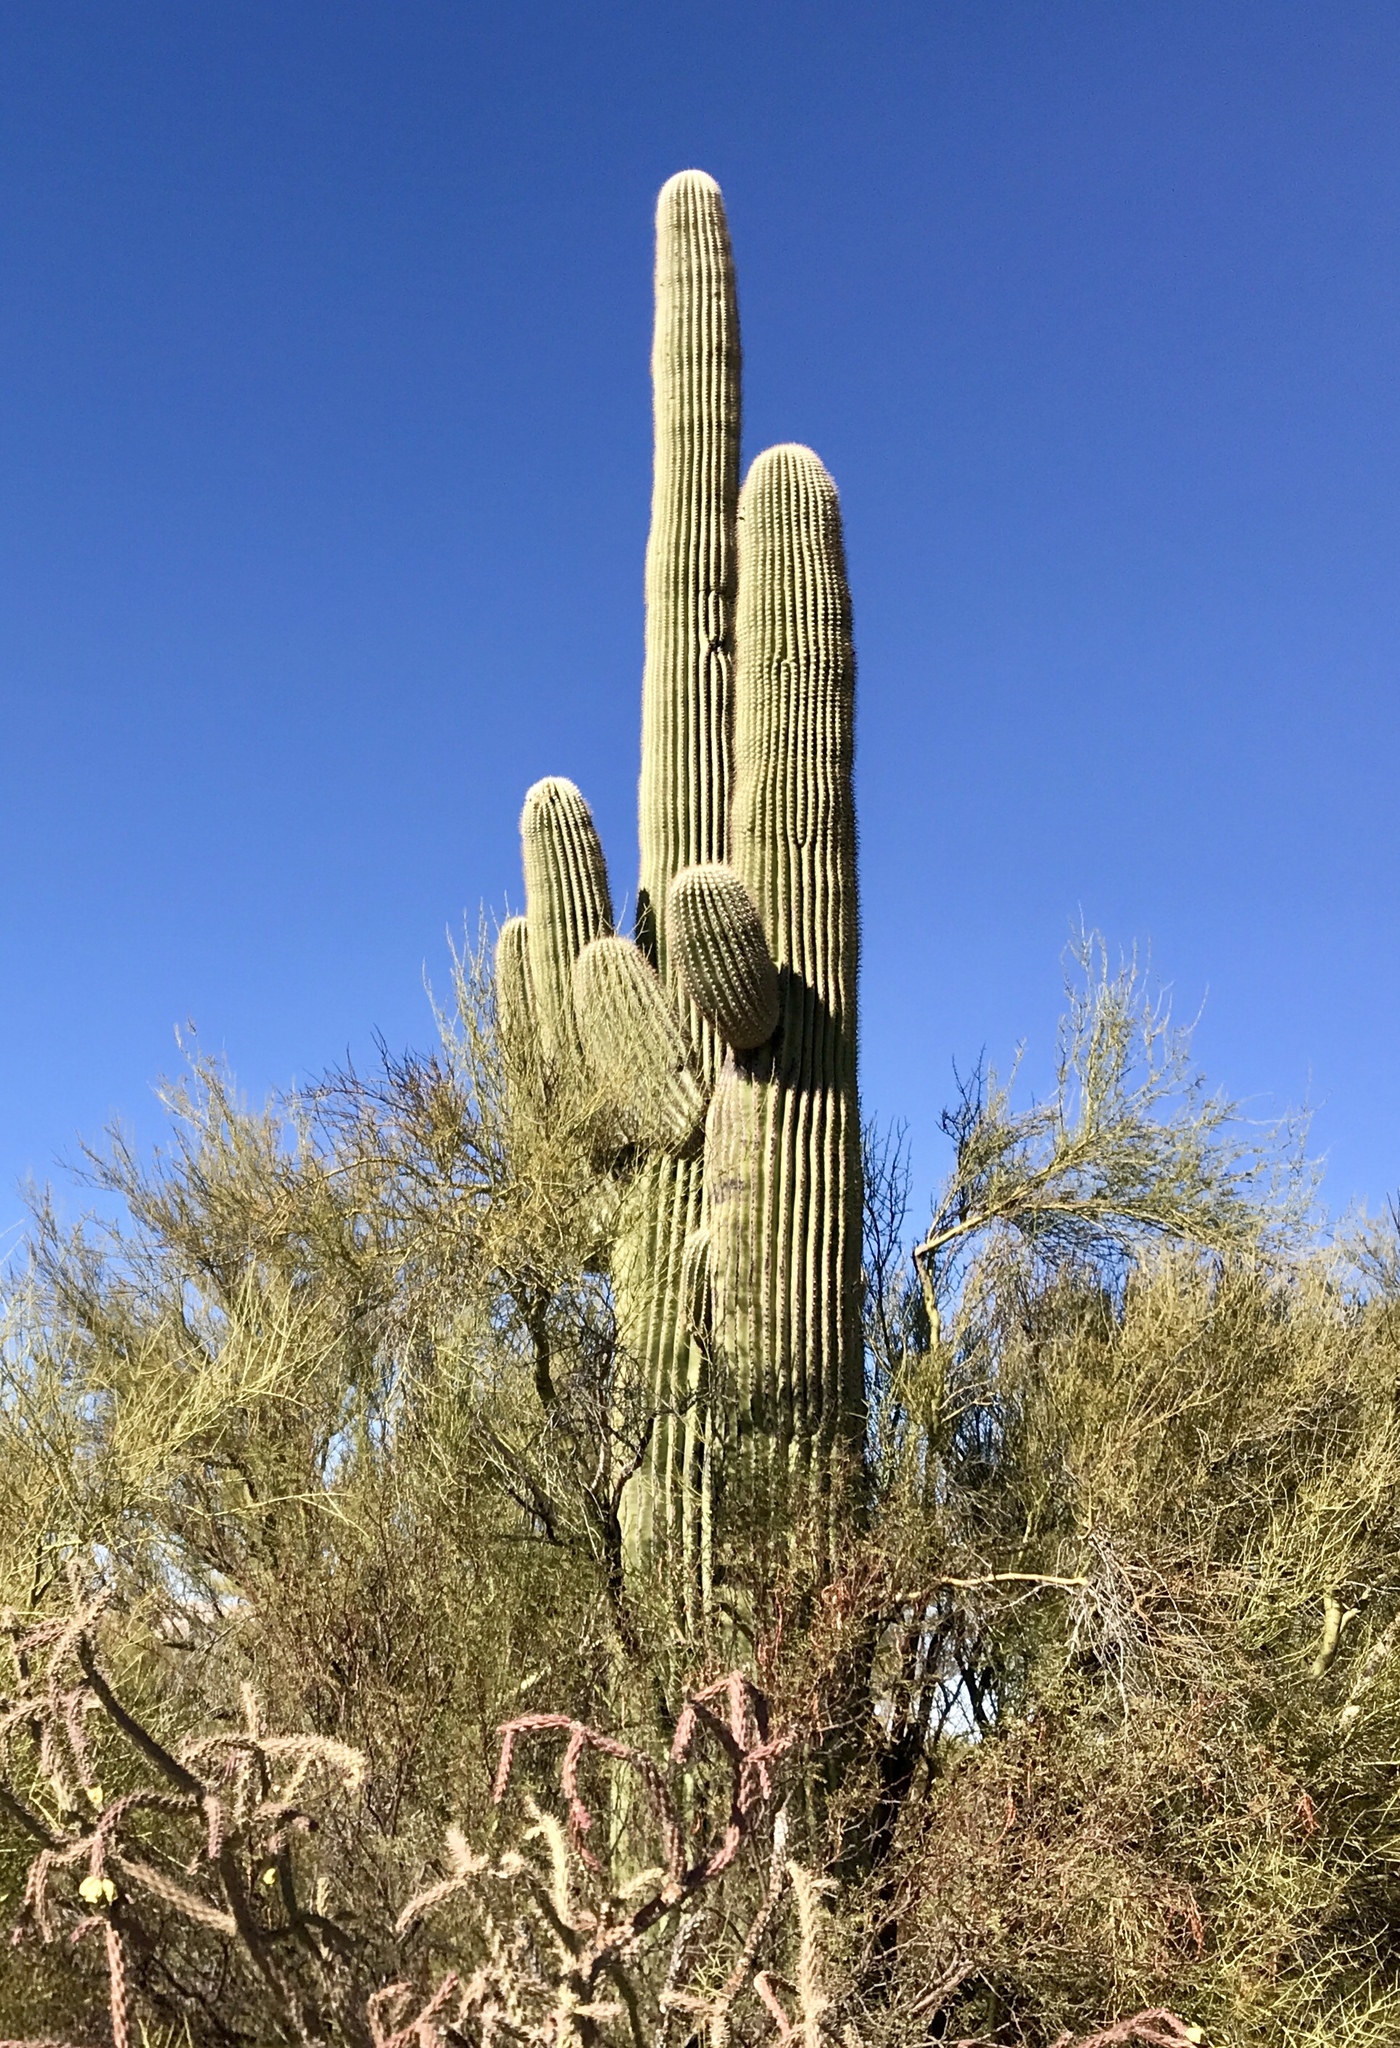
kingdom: Plantae
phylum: Tracheophyta
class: Magnoliopsida
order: Caryophyllales
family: Cactaceae
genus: Carnegiea
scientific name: Carnegiea gigantea
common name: Saguaro
